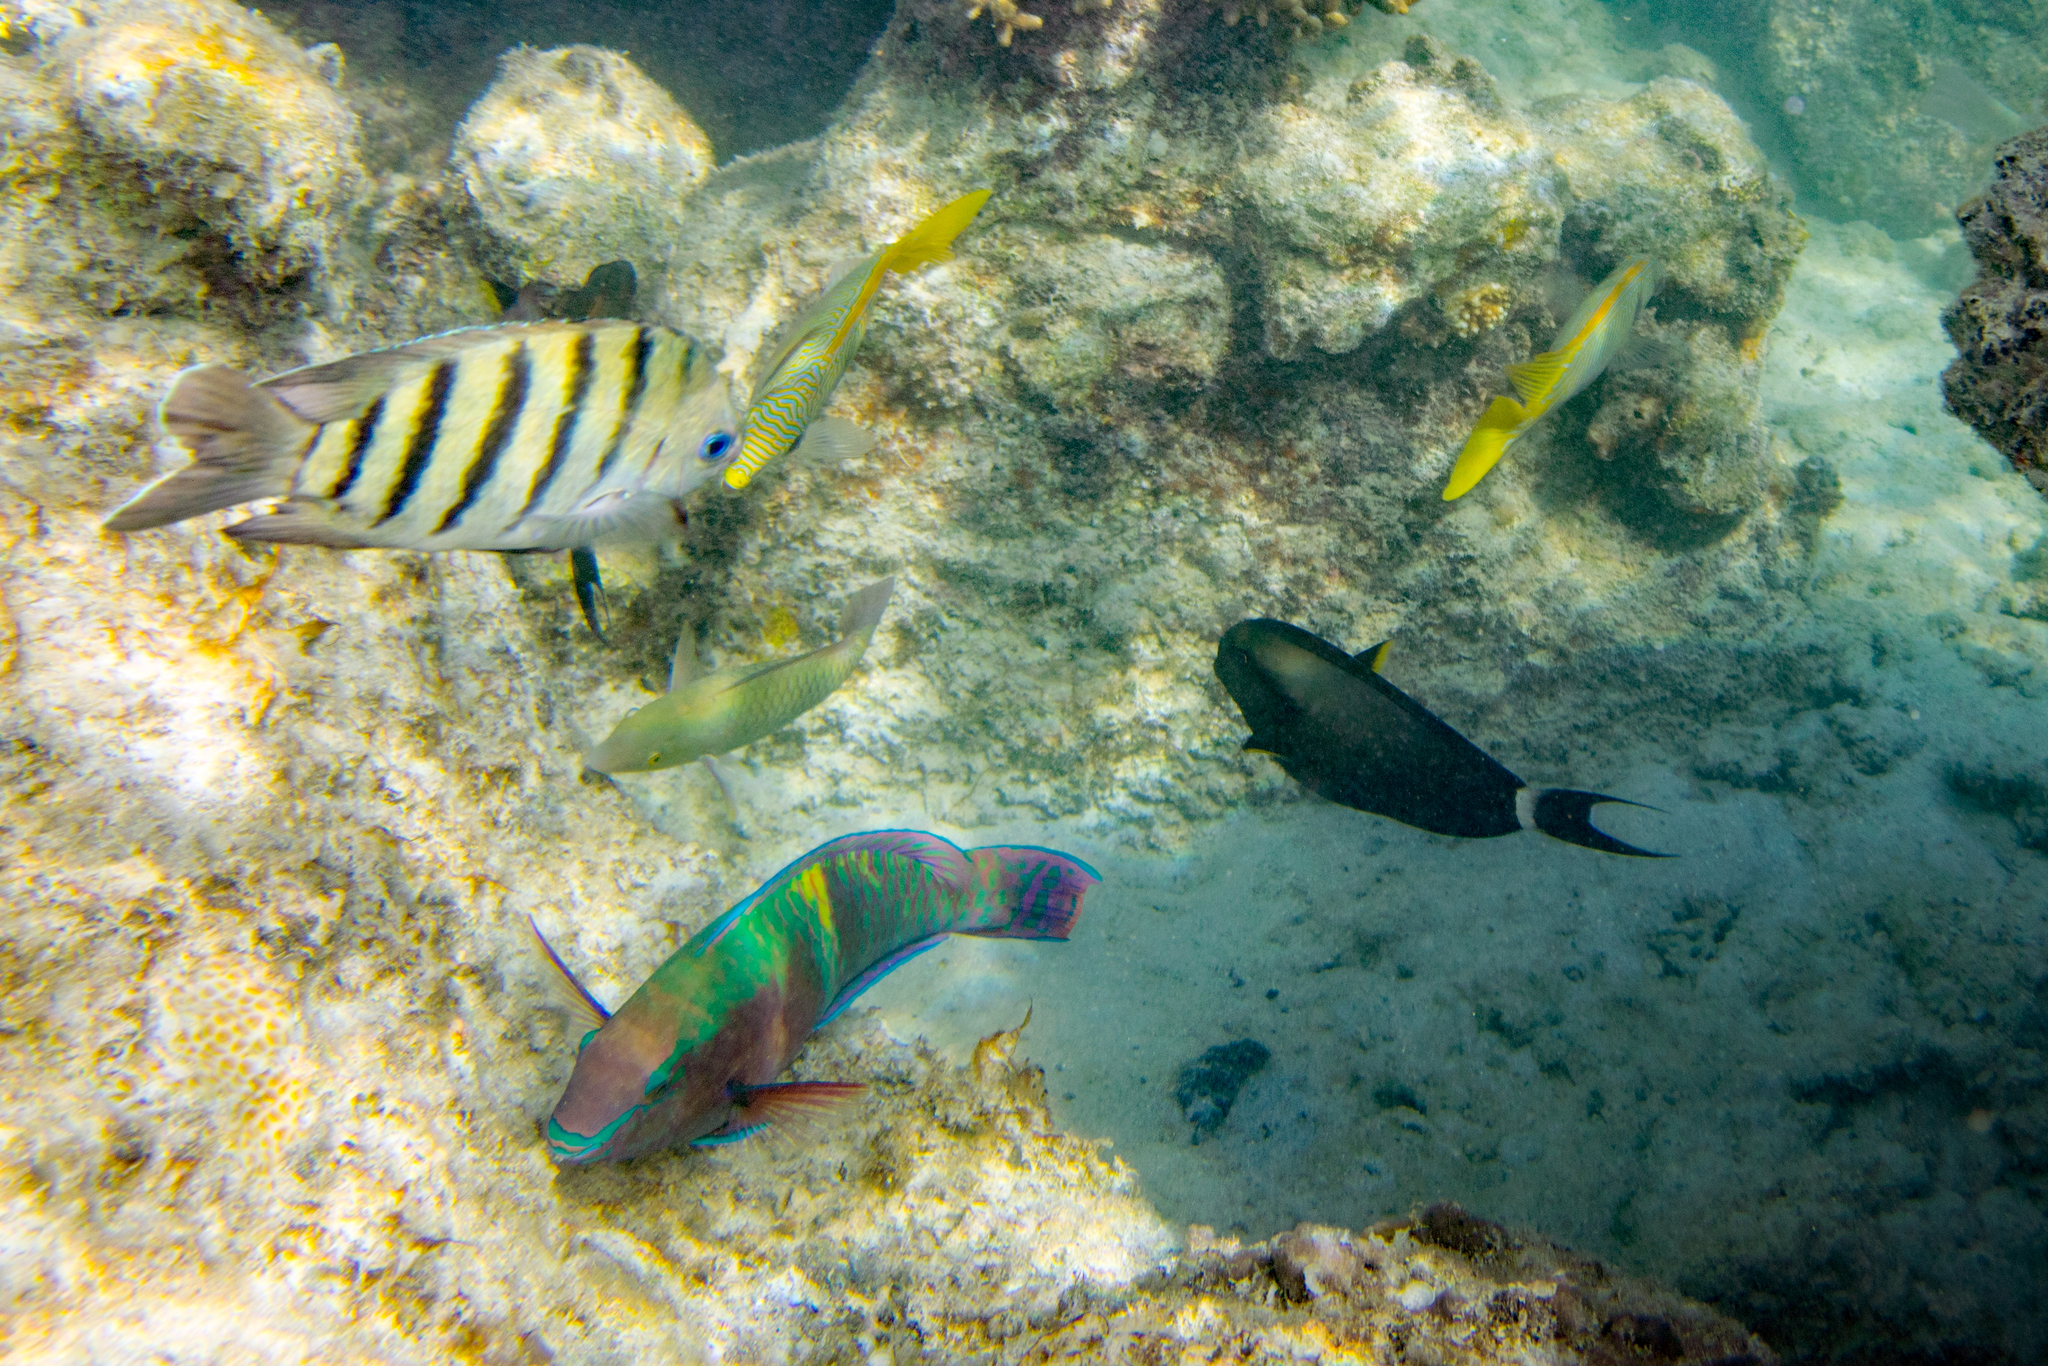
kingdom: Animalia
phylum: Chordata
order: Perciformes
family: Scaridae
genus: Scarus
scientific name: Scarus schlegeli
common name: Schlegel's parrotfish
